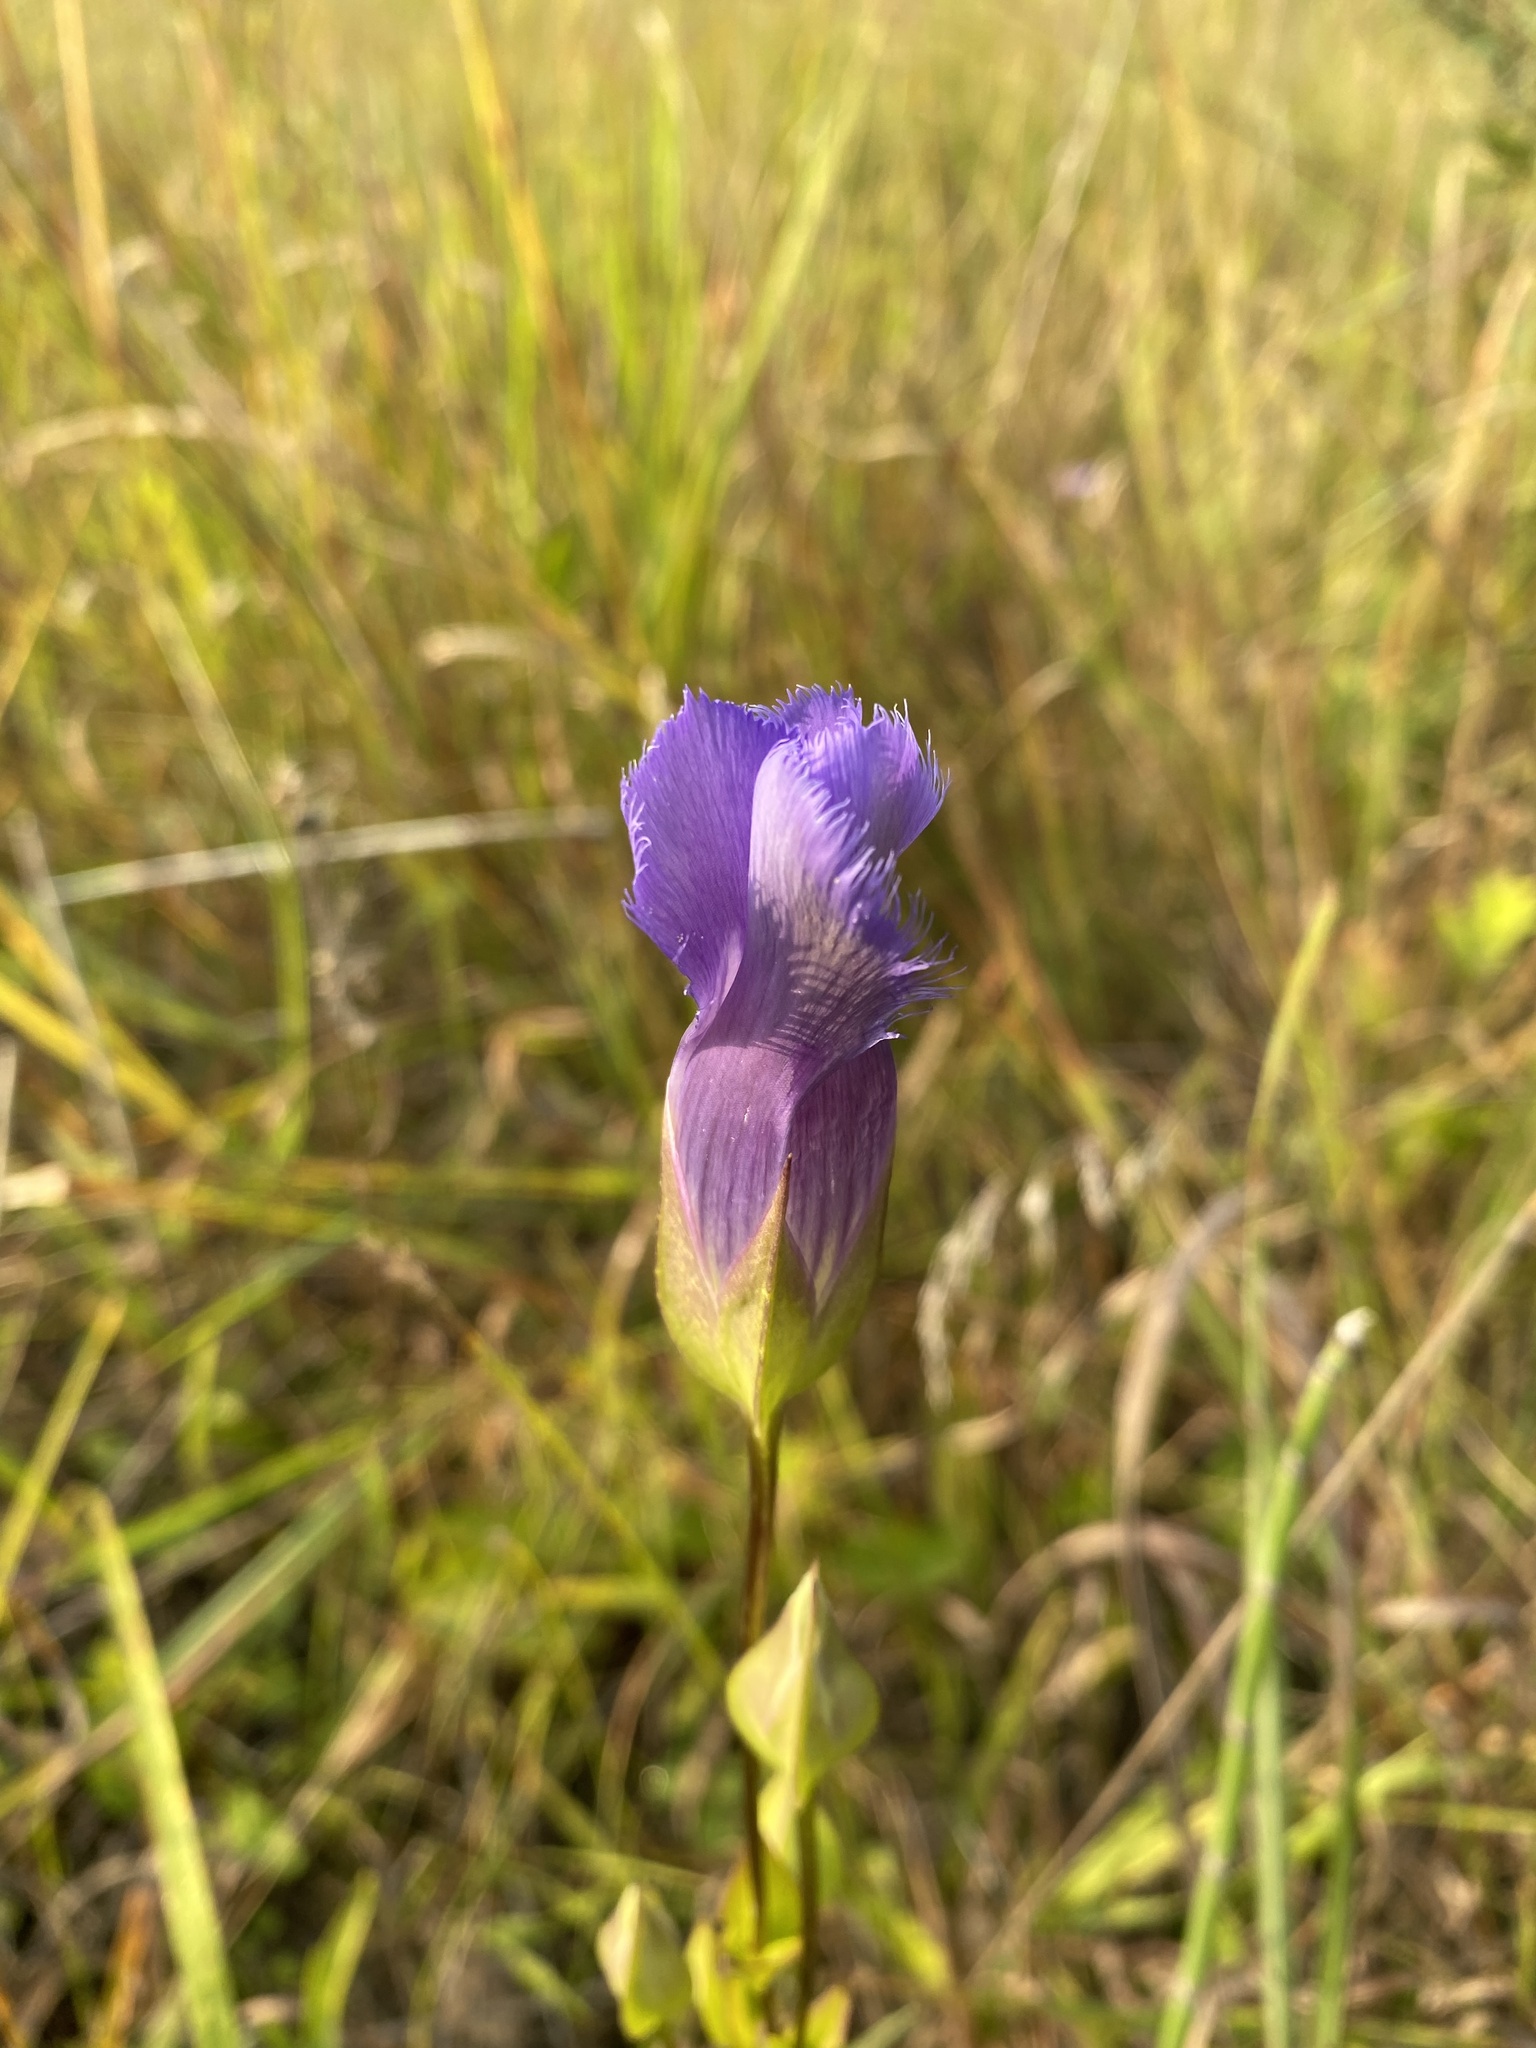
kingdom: Plantae
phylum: Tracheophyta
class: Magnoliopsida
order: Gentianales
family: Gentianaceae
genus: Gentianopsis
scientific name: Gentianopsis crinita
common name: Fringed-gentian
